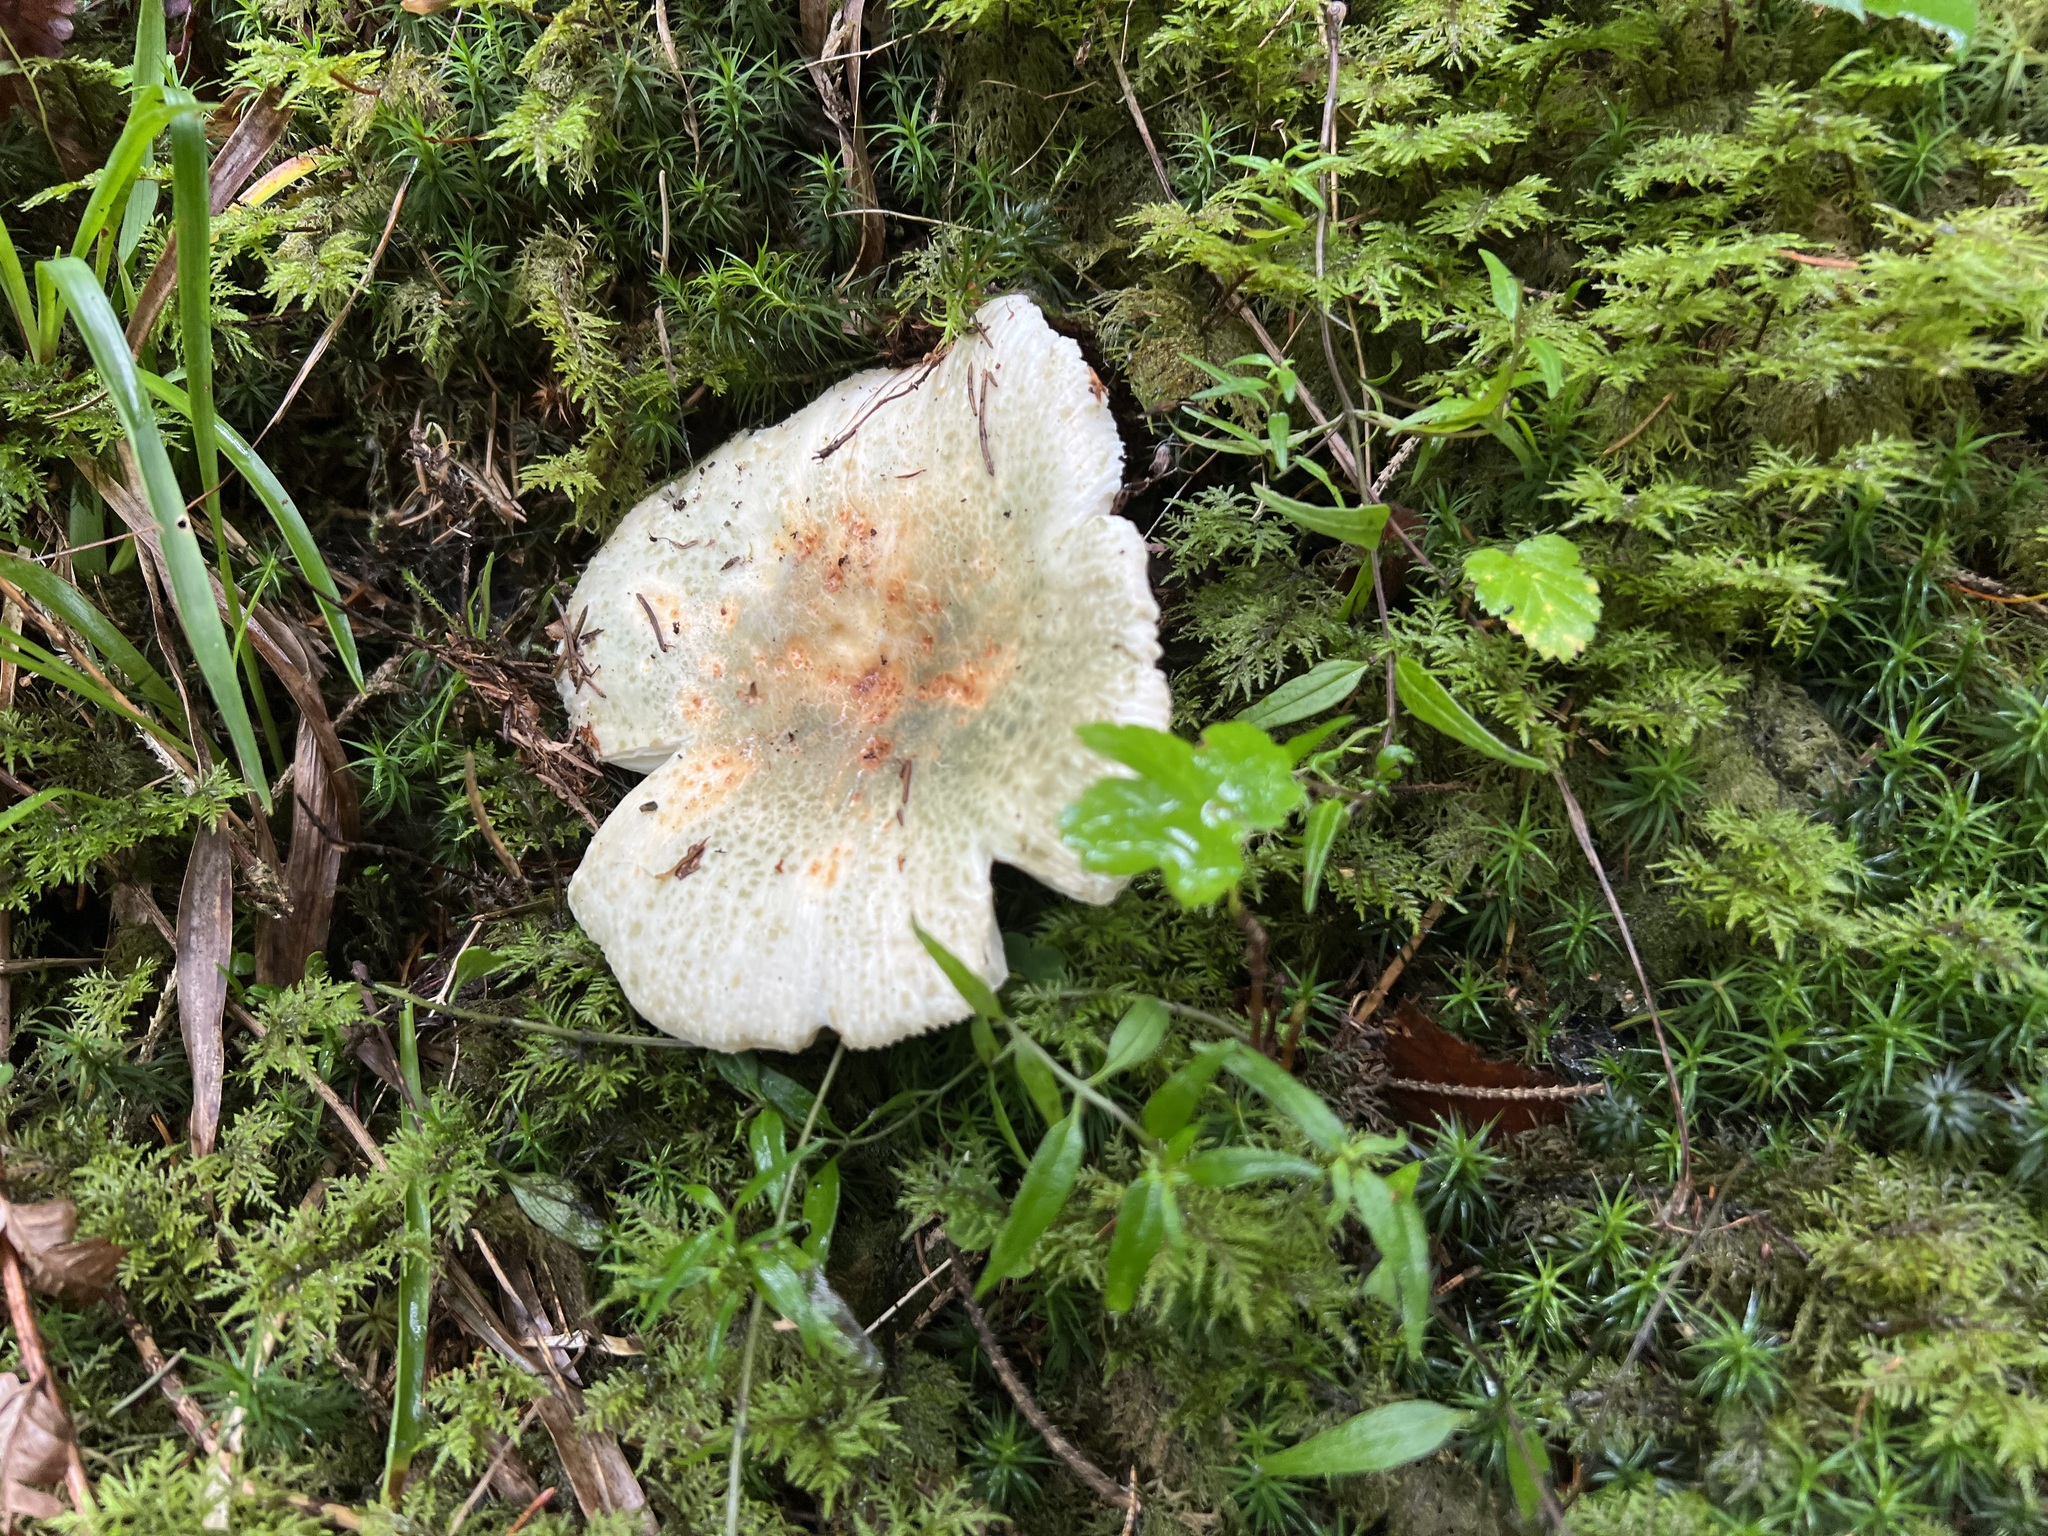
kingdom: Fungi
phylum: Basidiomycota
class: Agaricomycetes
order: Russulales
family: Russulaceae
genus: Russula
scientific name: Russula virescens
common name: Greencracked brittlegill
